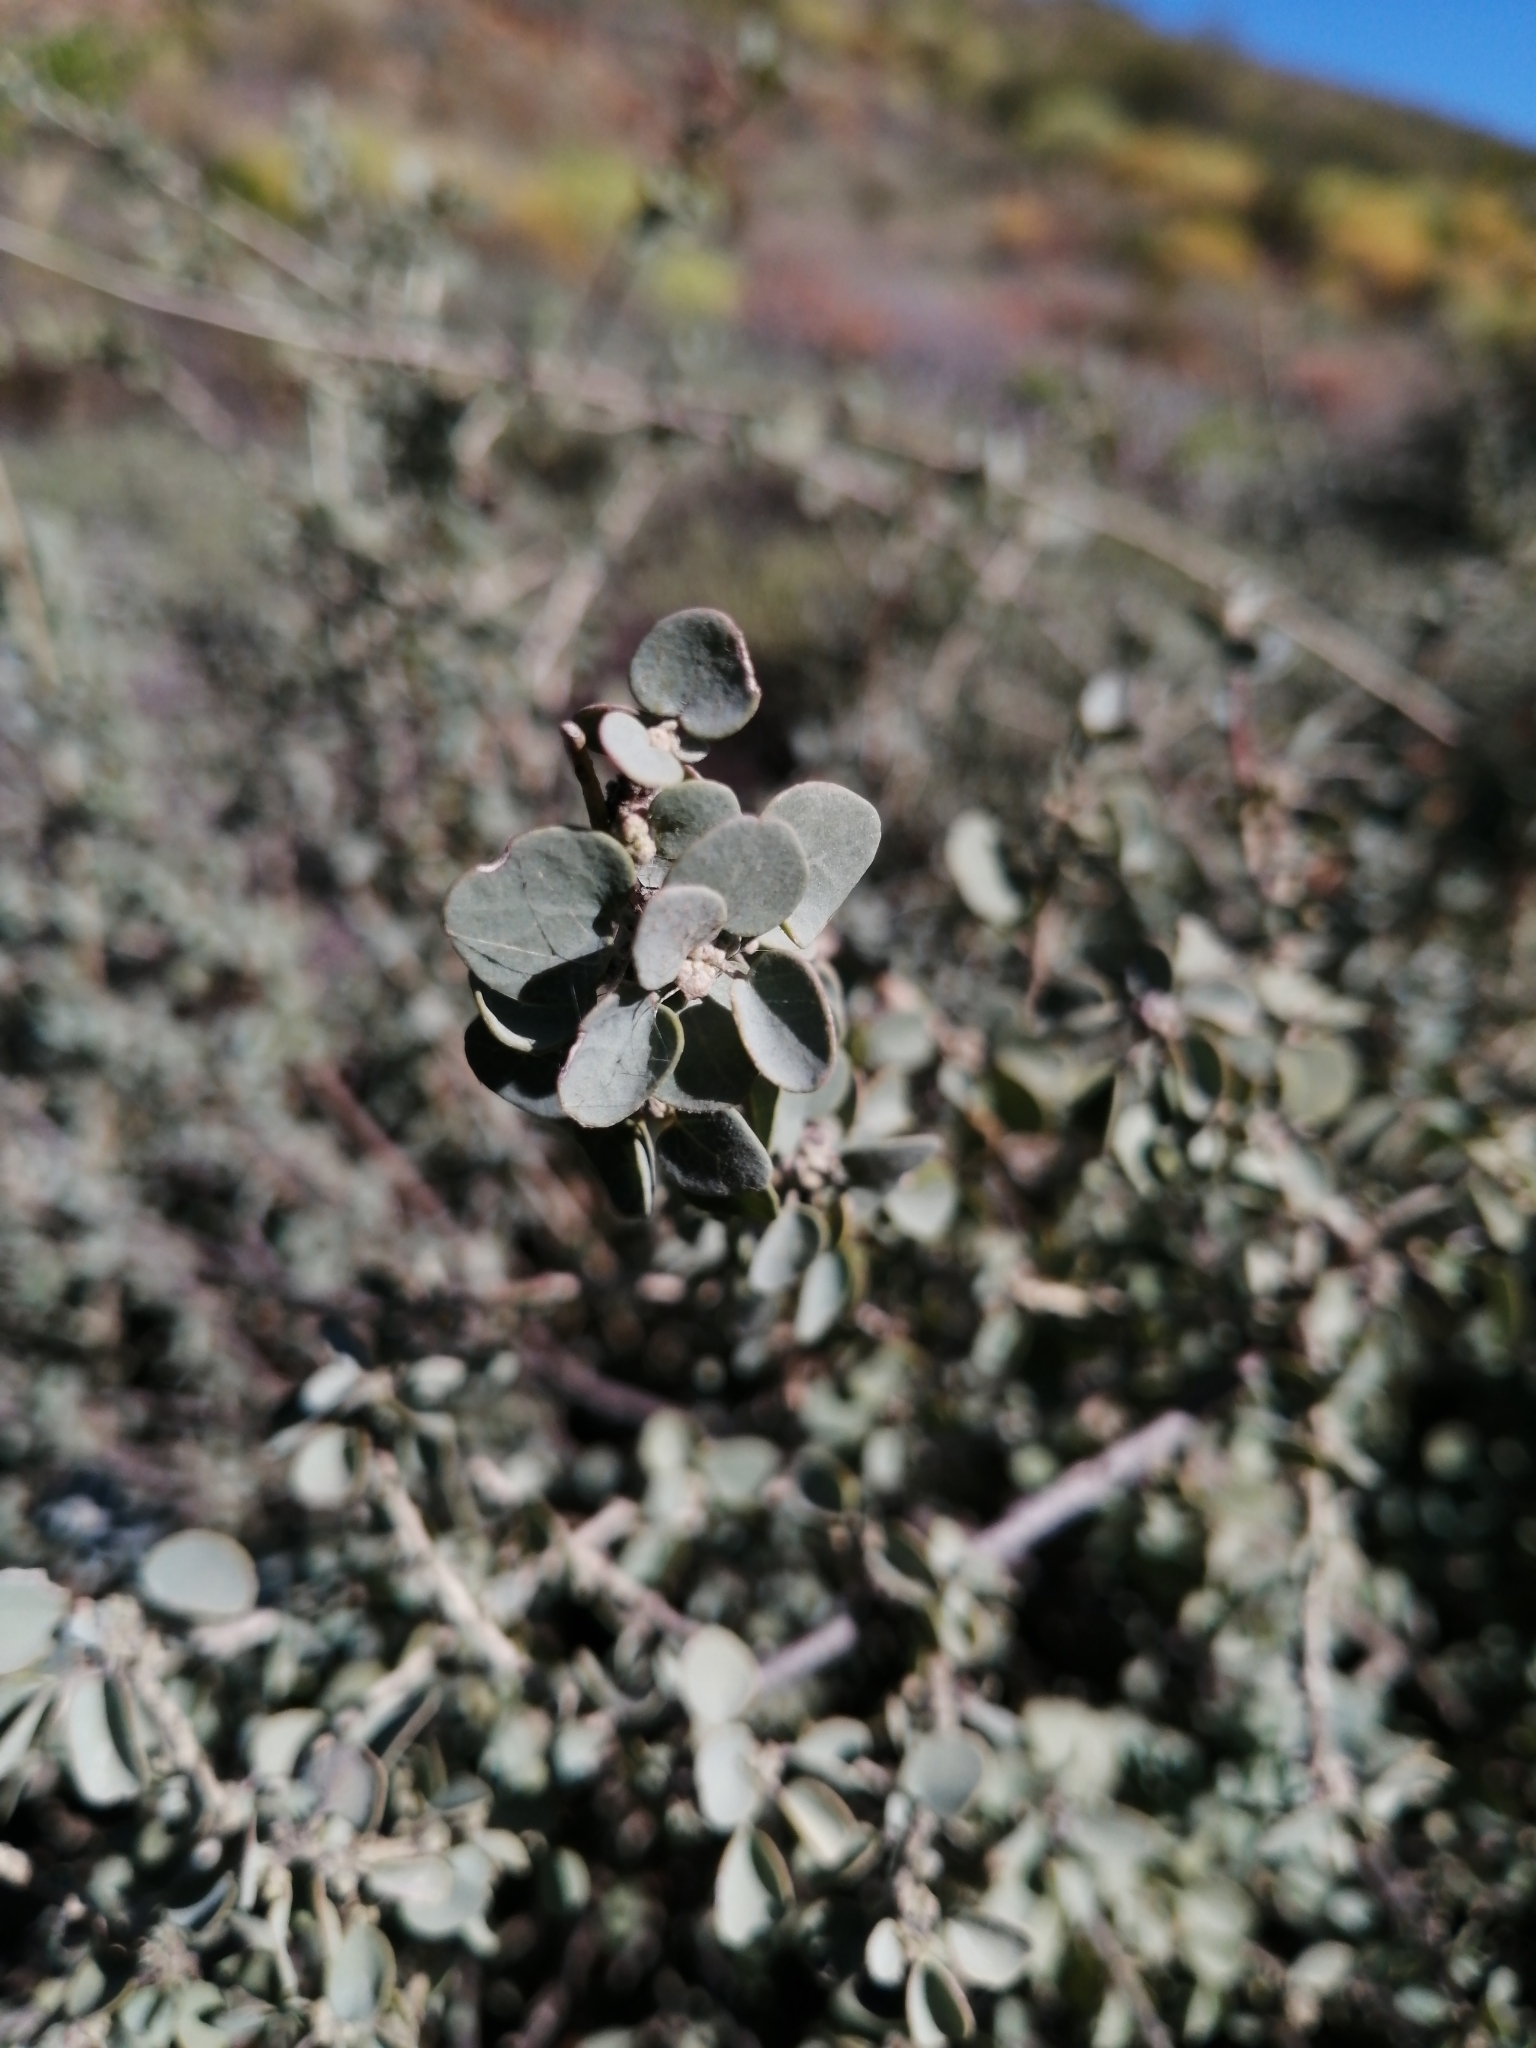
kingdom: Plantae
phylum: Tracheophyta
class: Magnoliopsida
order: Ranunculales
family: Menispermaceae
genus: Cissampelos
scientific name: Cissampelos capensis
